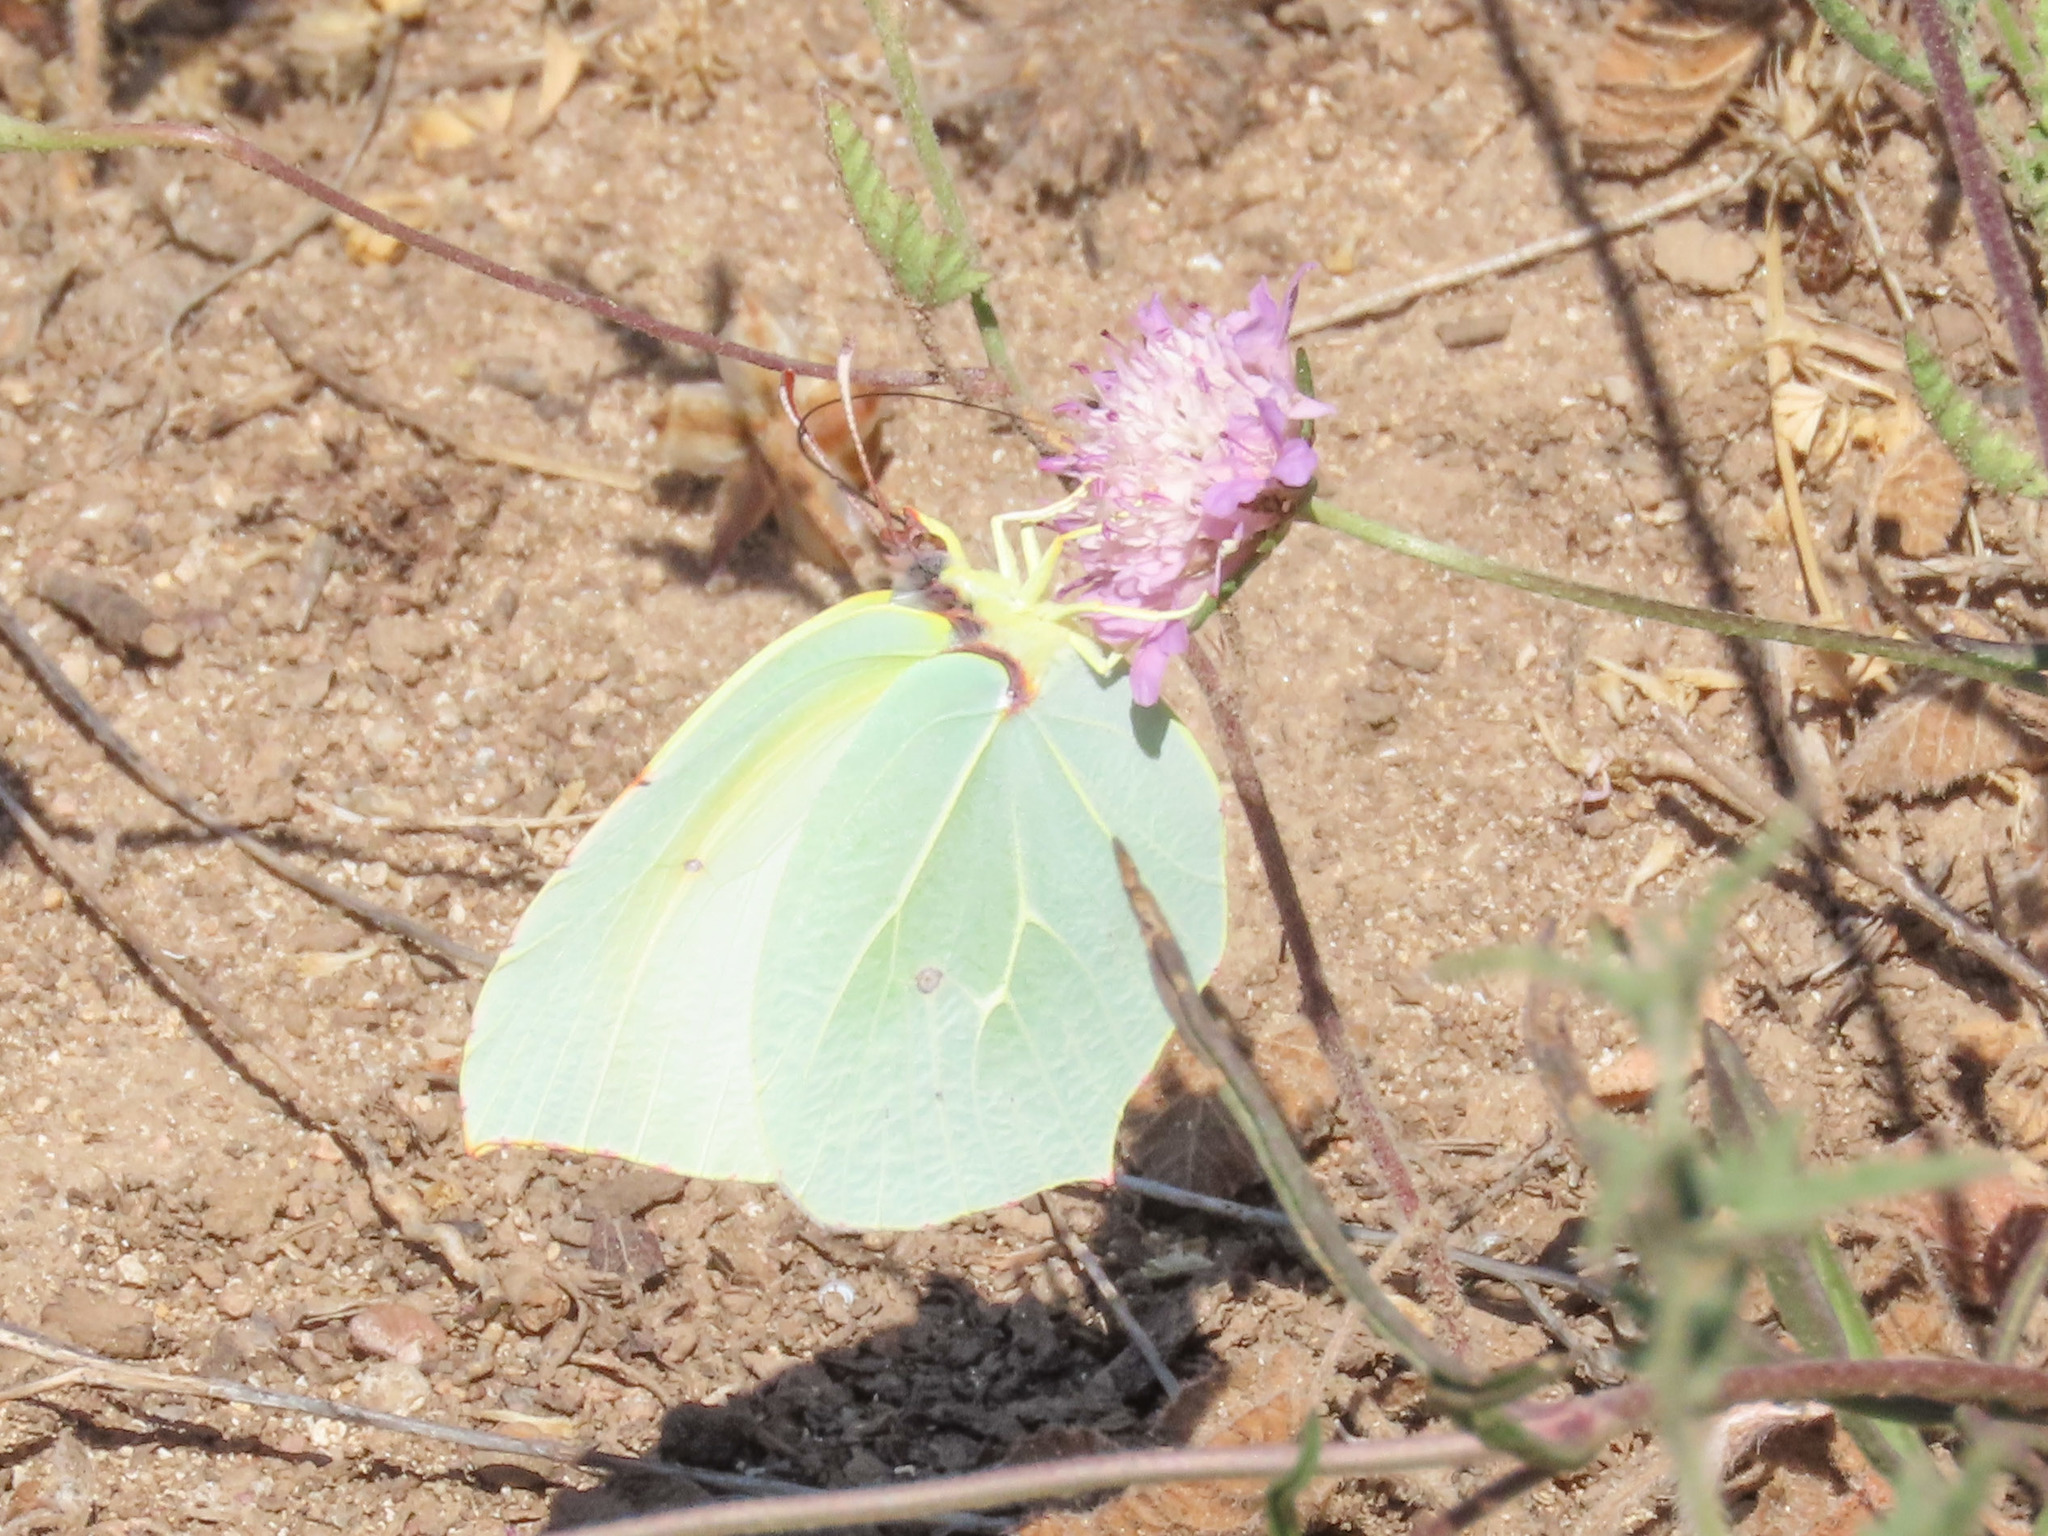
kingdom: Animalia
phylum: Arthropoda
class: Insecta
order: Lepidoptera
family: Pieridae
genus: Gonepteryx
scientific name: Gonepteryx cleopatra
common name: Cleopatra
